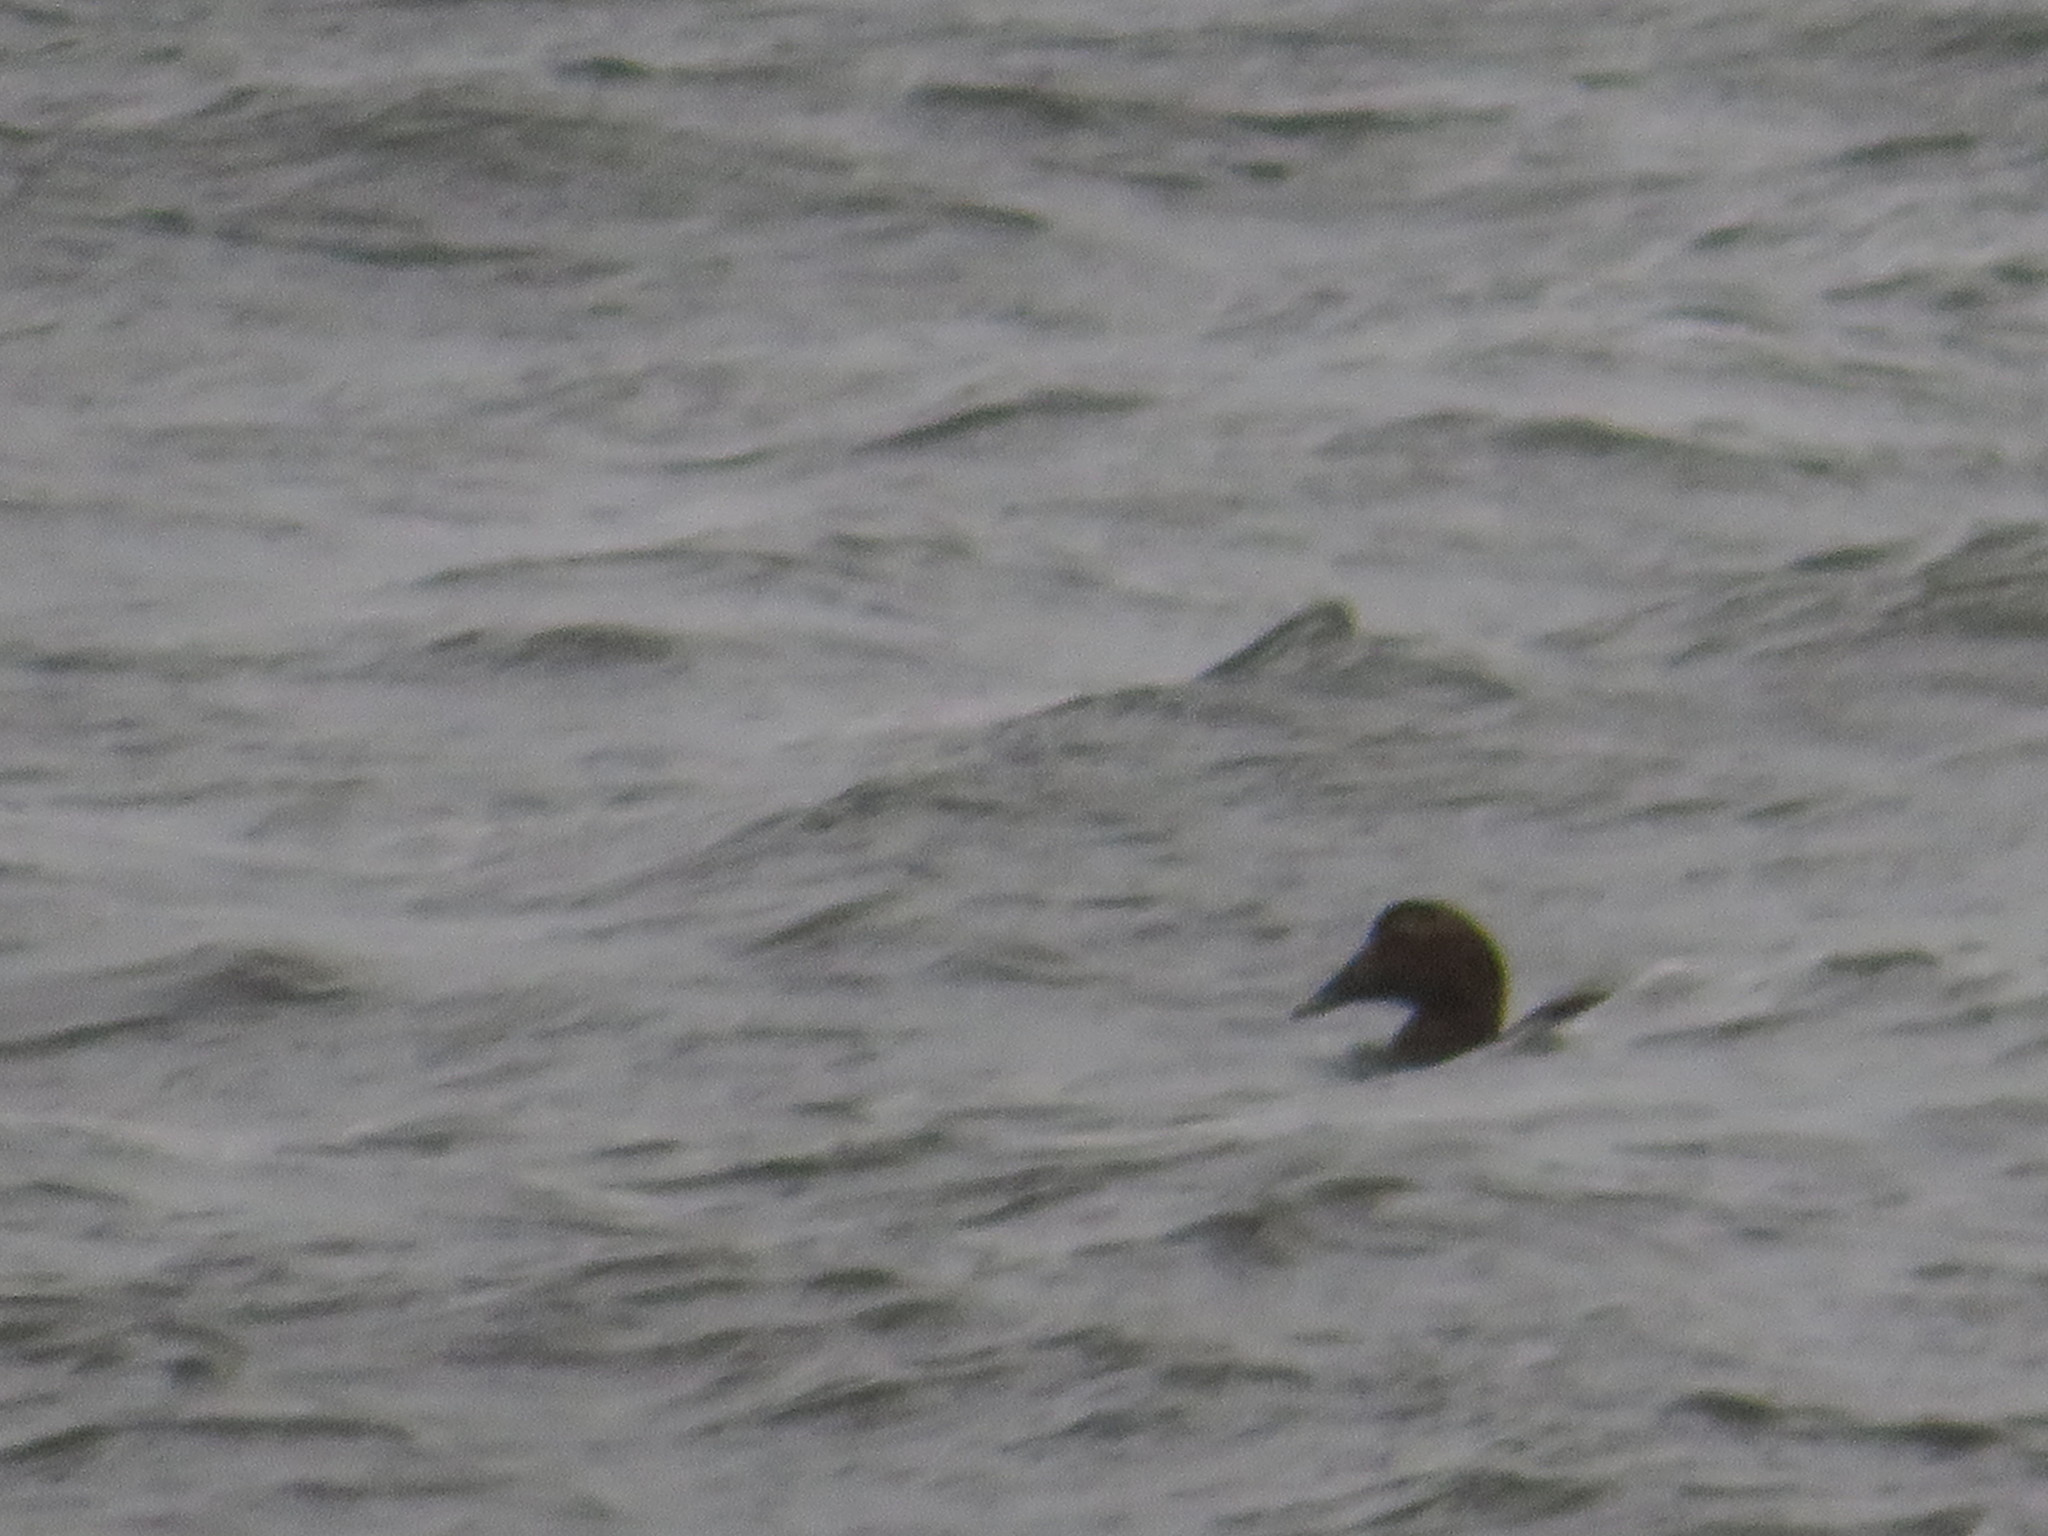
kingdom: Animalia
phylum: Chordata
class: Aves
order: Anseriformes
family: Anatidae
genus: Somateria
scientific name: Somateria mollissima
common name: Common eider
